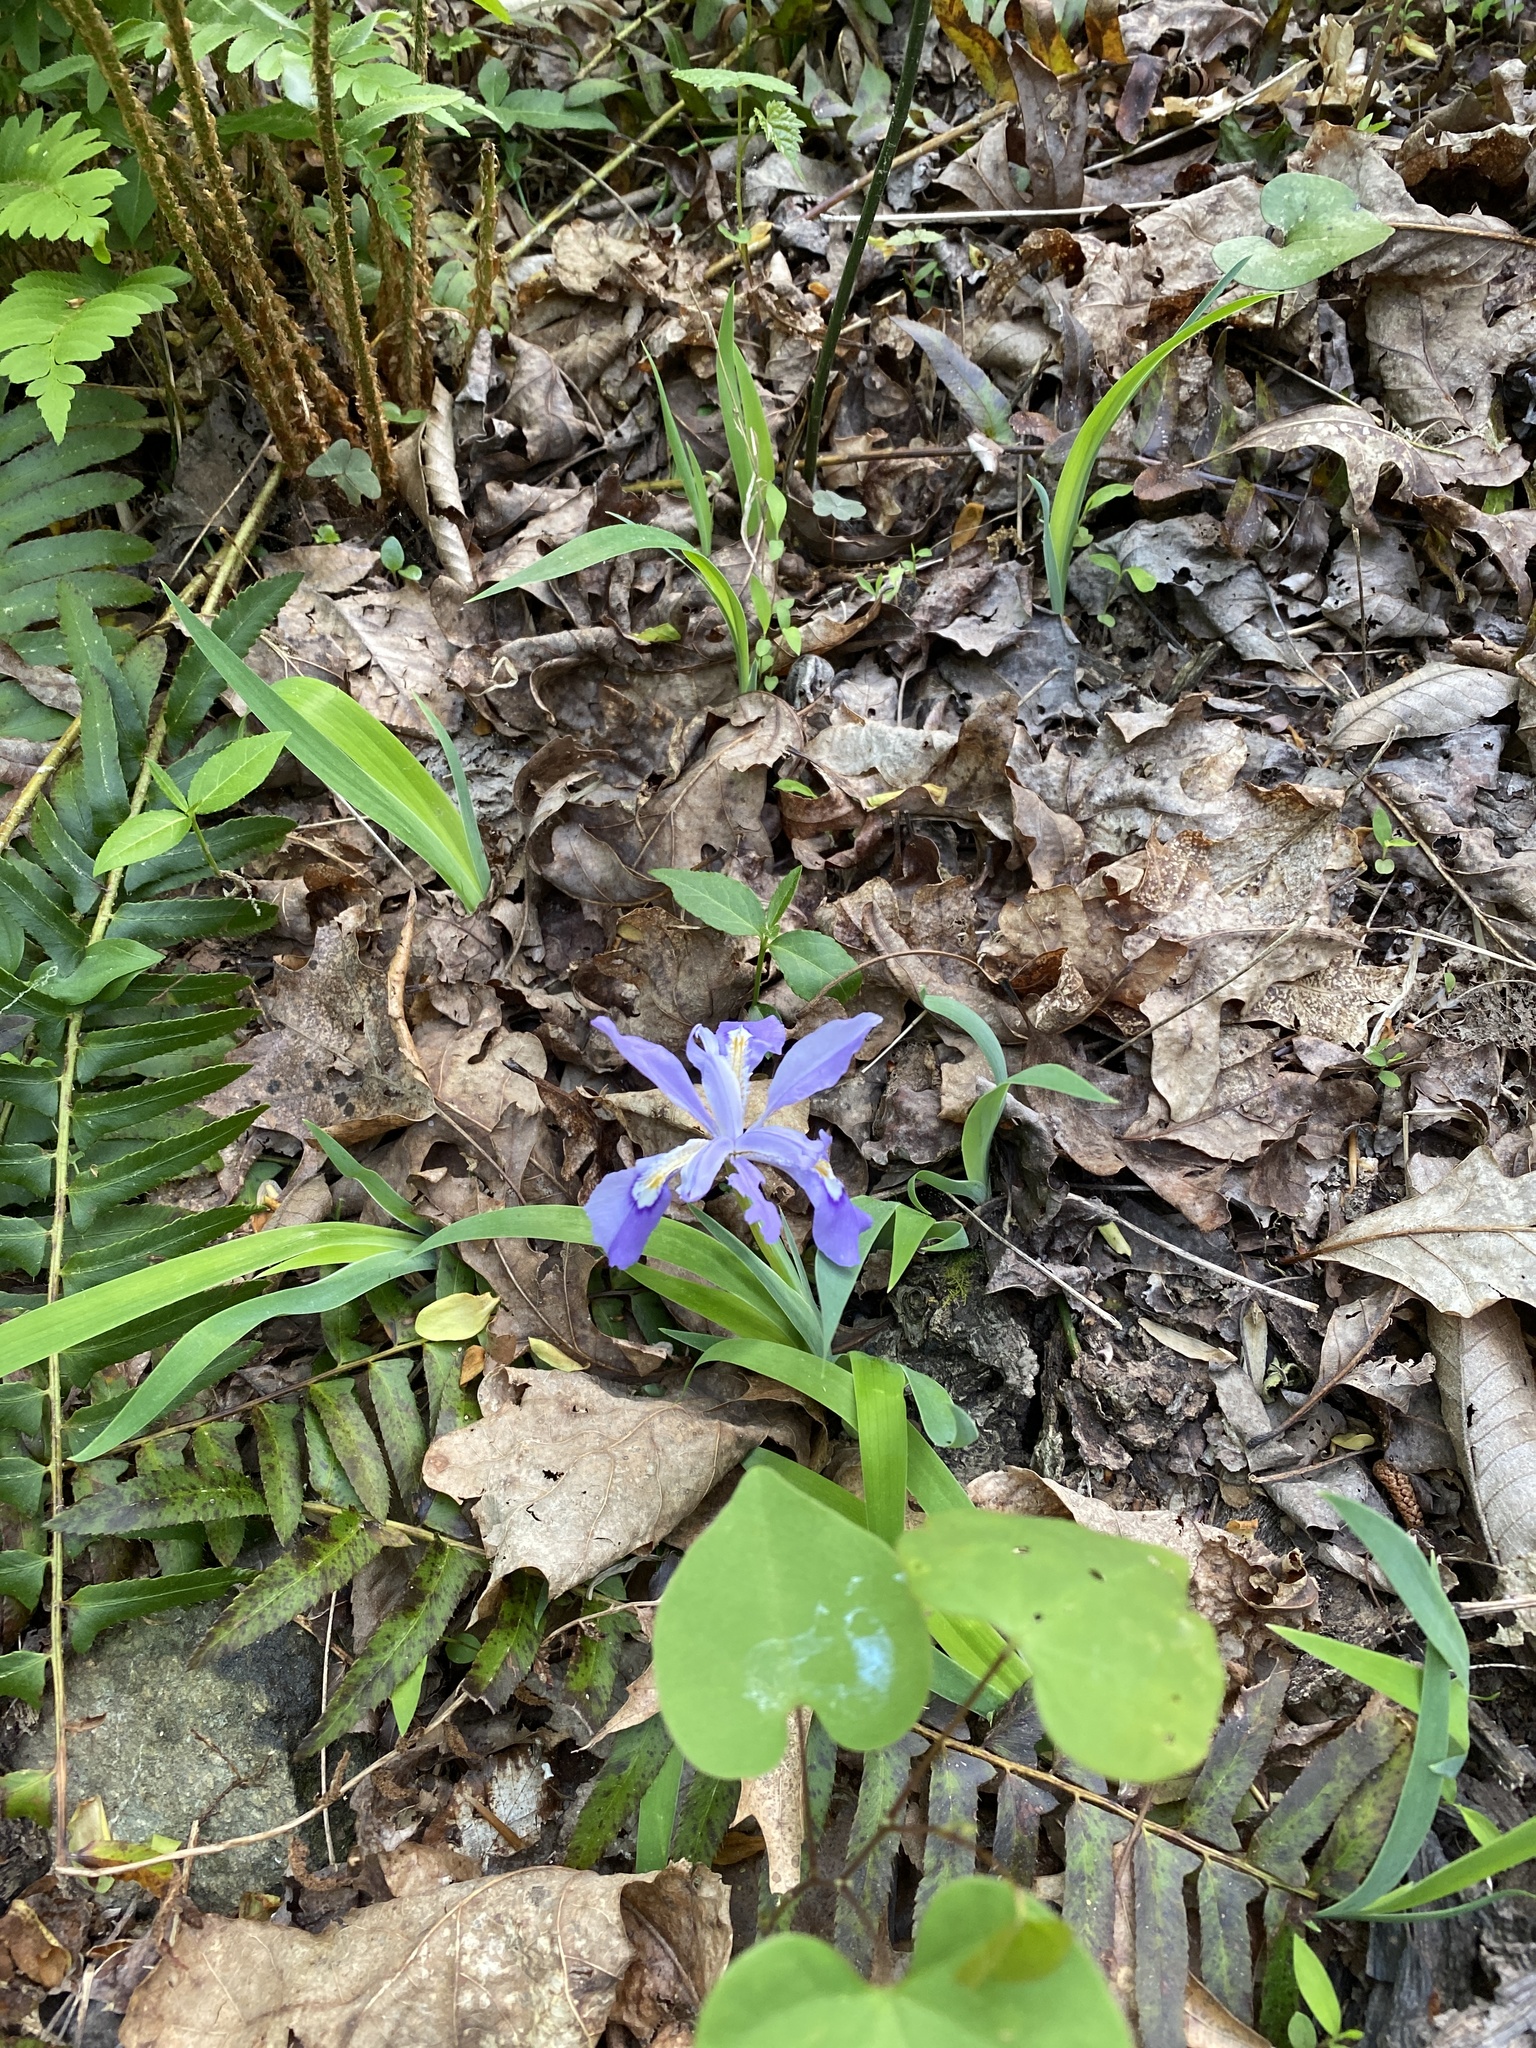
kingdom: Plantae
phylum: Tracheophyta
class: Liliopsida
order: Asparagales
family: Iridaceae
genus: Iris
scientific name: Iris cristata
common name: Crested iris
